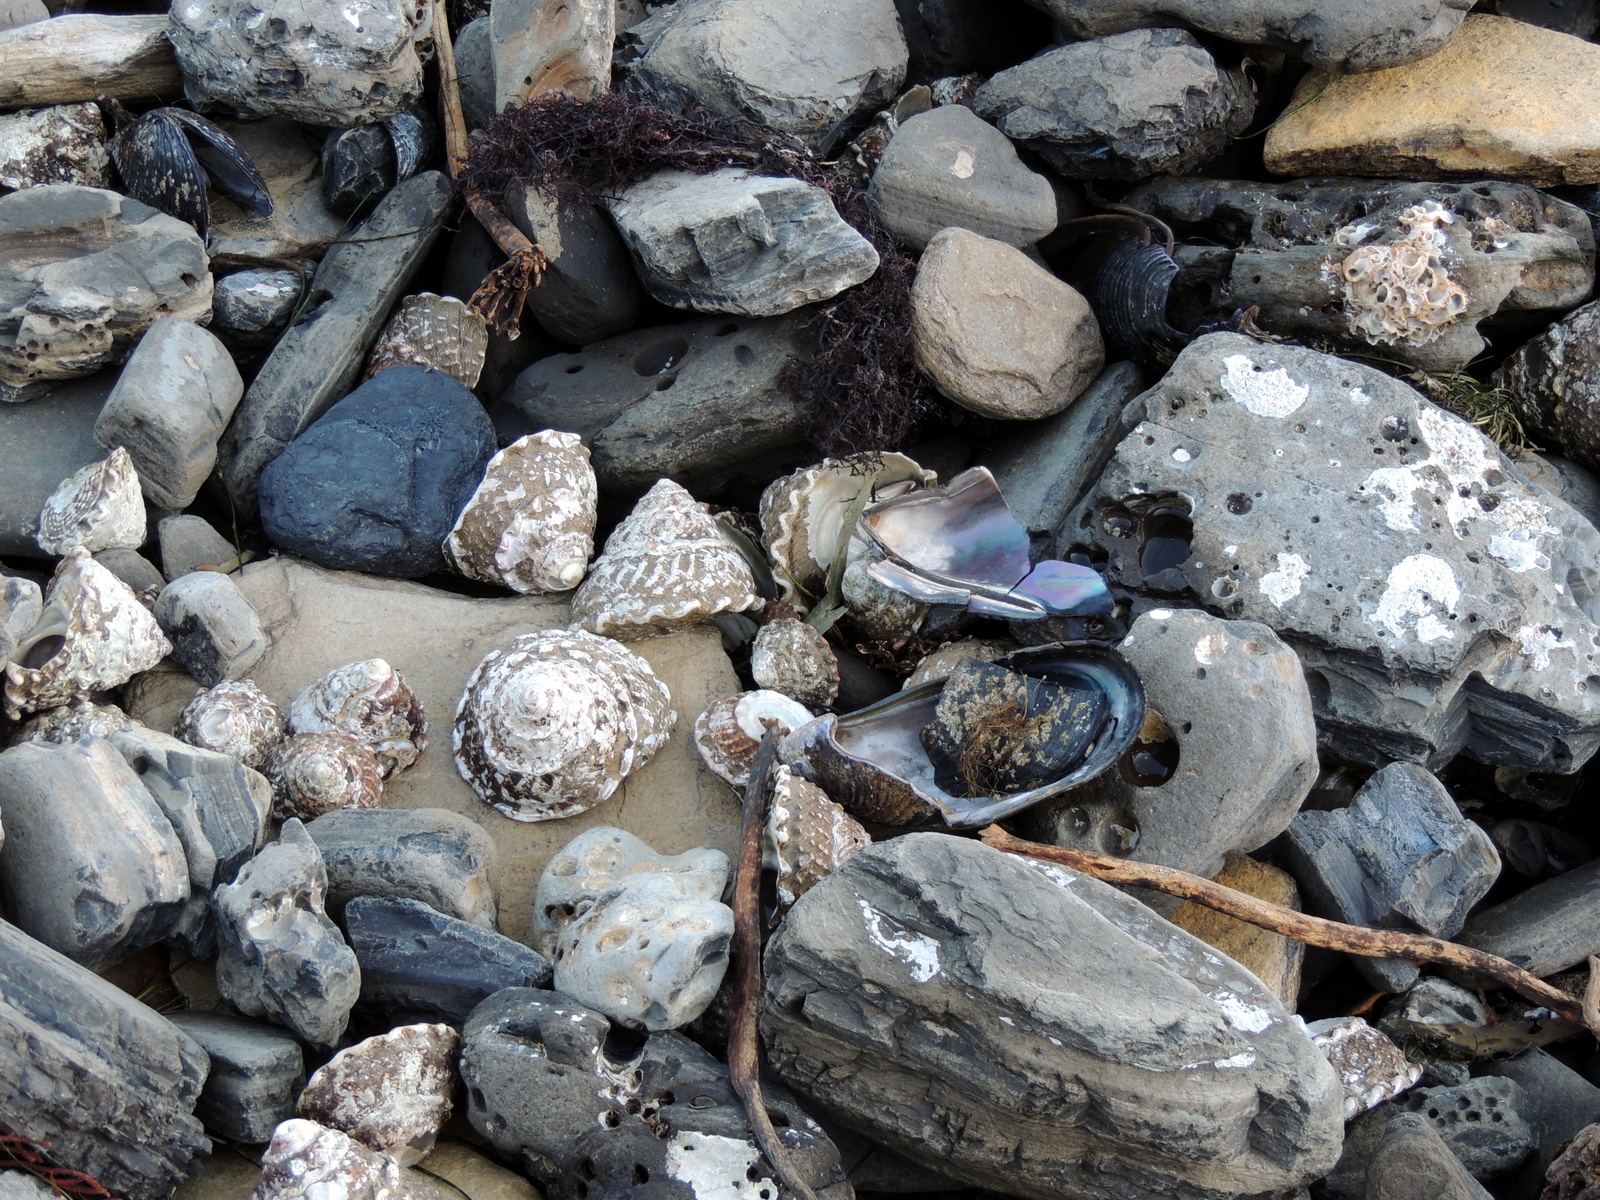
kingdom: Animalia
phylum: Mollusca
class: Gastropoda
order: Trochida
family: Turbinidae
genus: Megastraea
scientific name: Megastraea undosa
